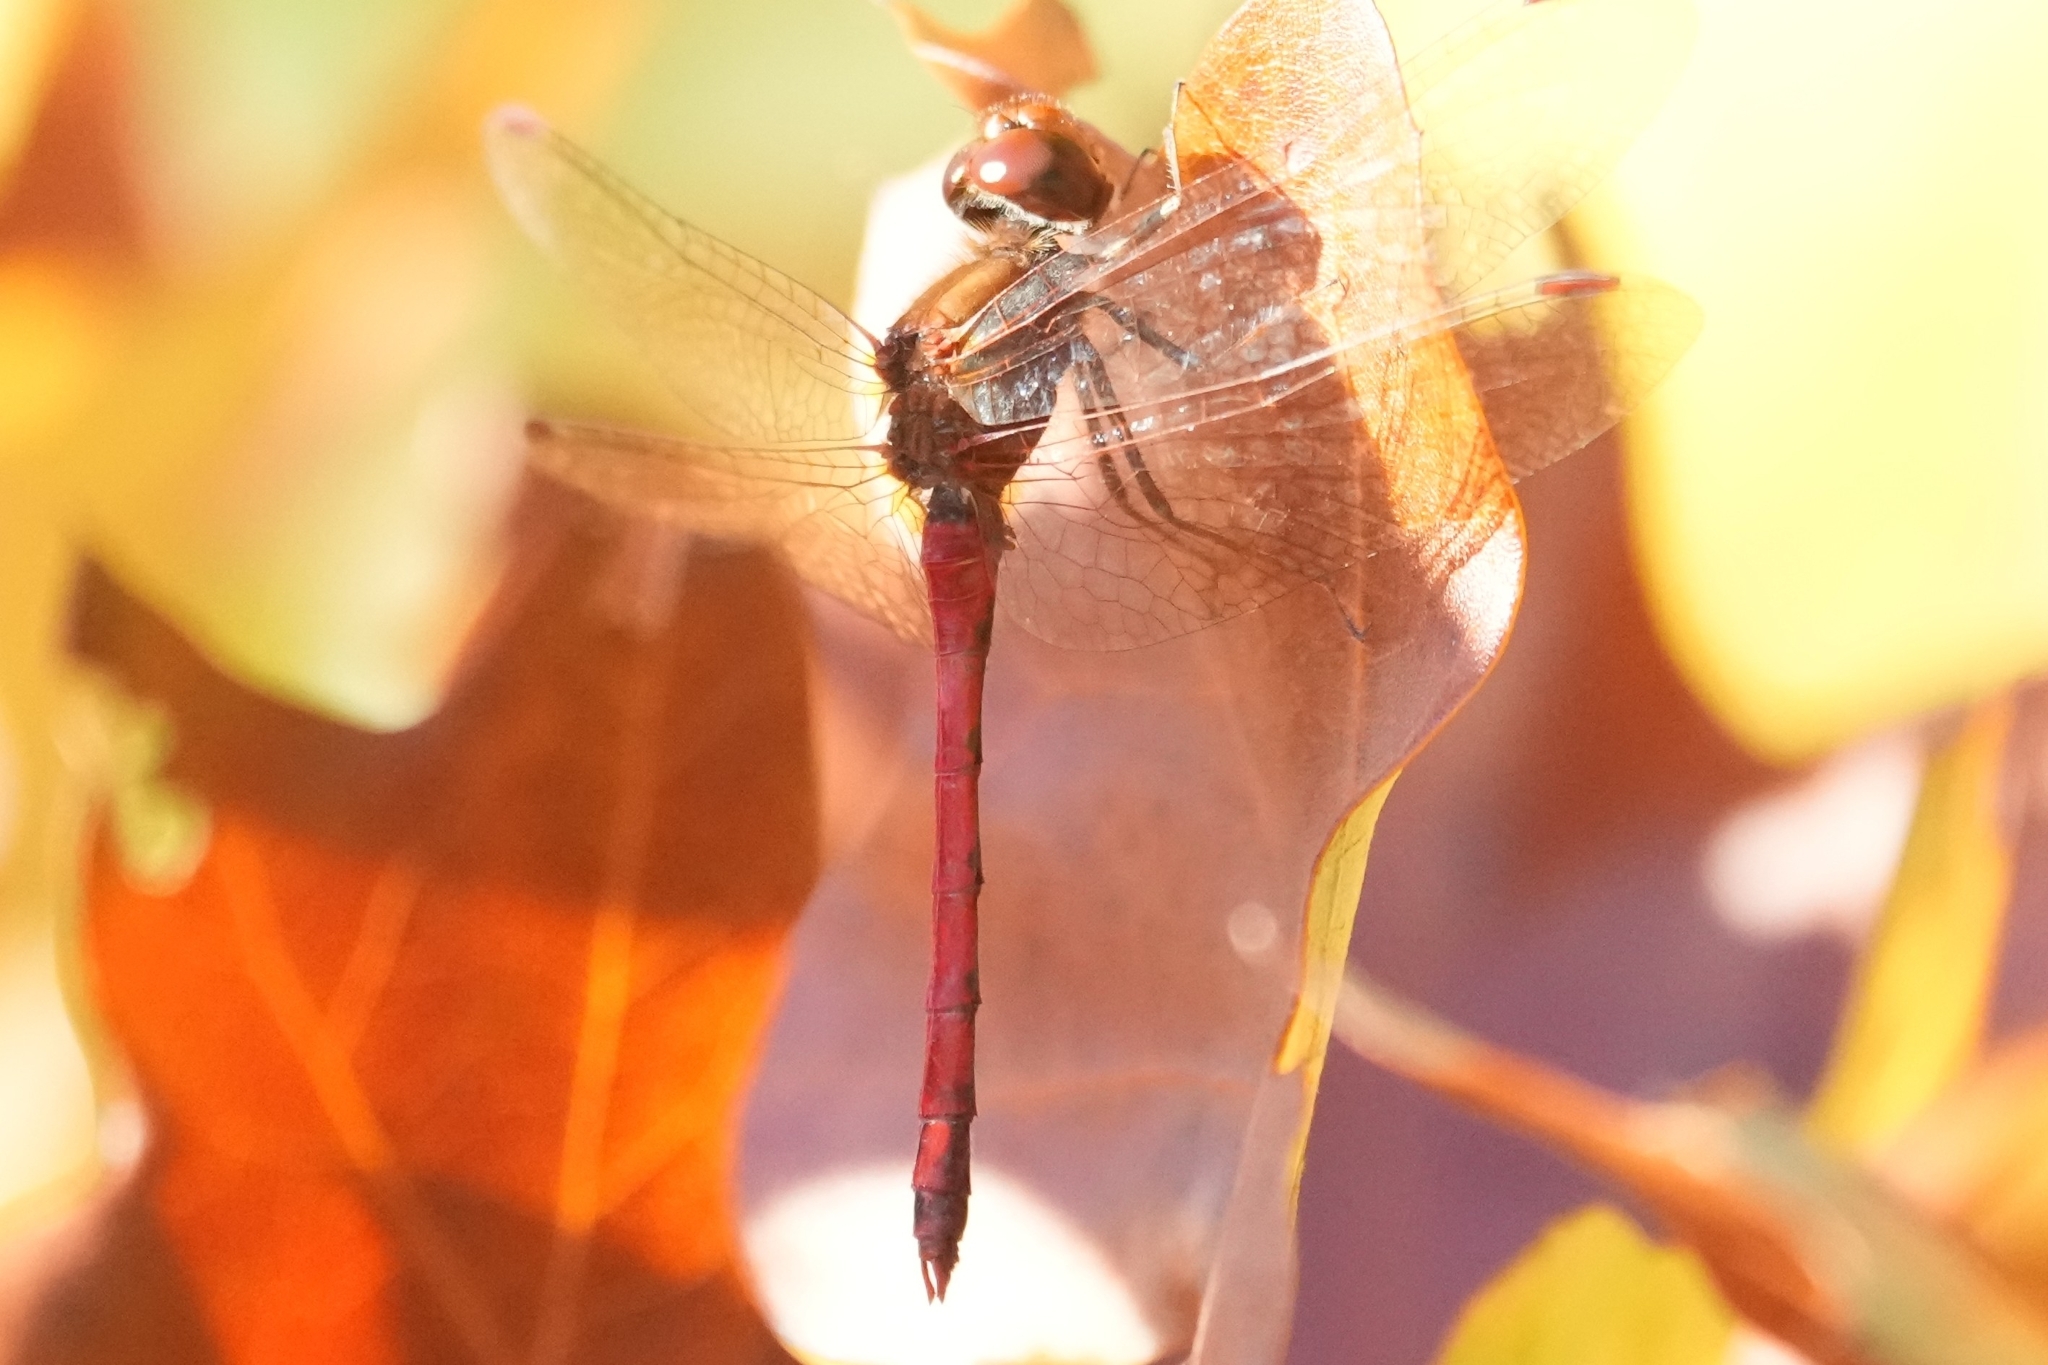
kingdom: Animalia
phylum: Arthropoda
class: Insecta
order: Odonata
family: Libellulidae
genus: Sympetrum
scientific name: Sympetrum vicinum
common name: Autumn meadowhawk
